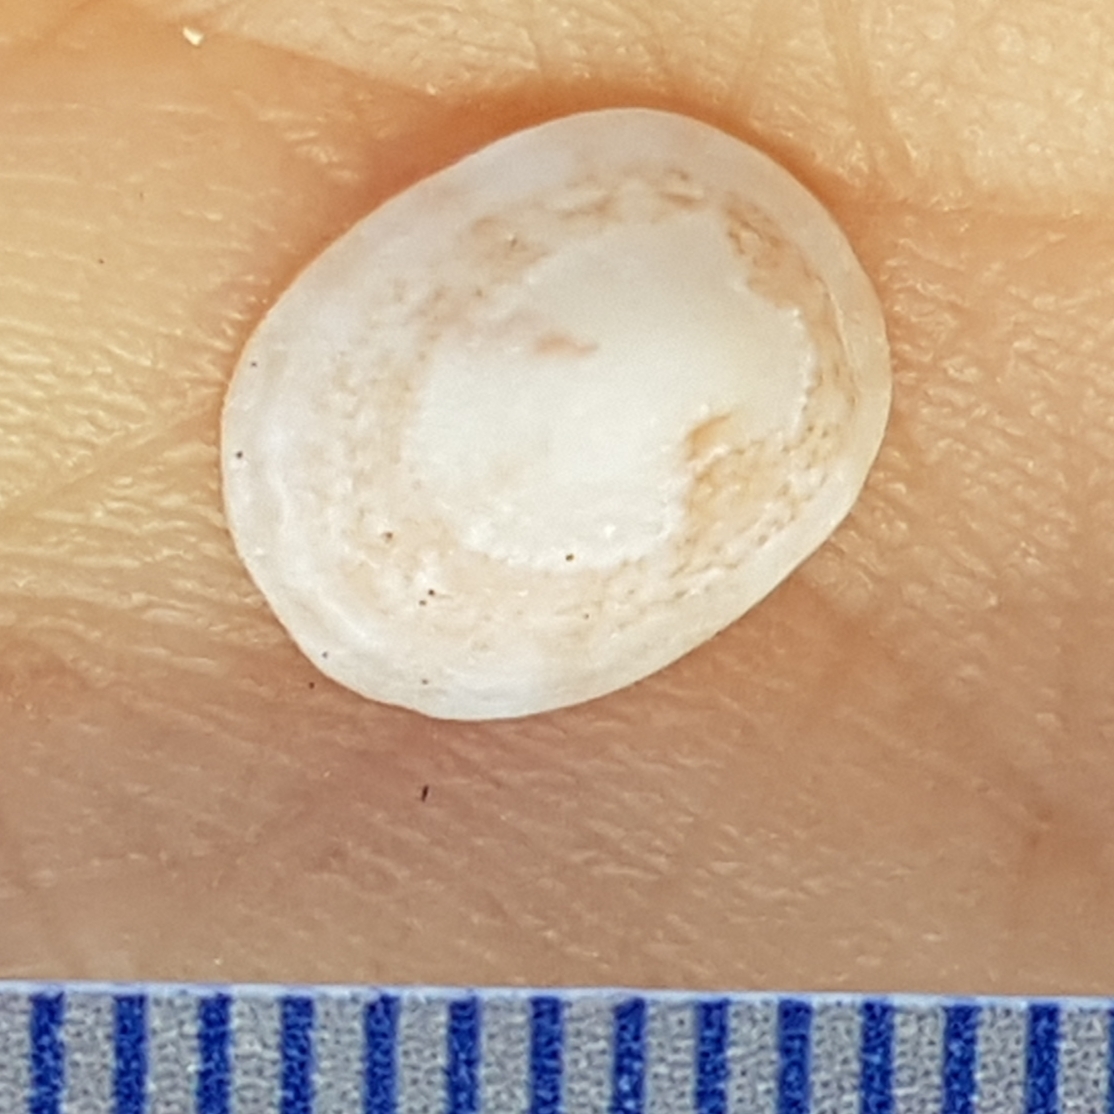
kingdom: Animalia
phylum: Mollusca
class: Gastropoda
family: Lottiidae
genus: Tectura
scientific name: Tectura virginea
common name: White tortoiseshell limpet
